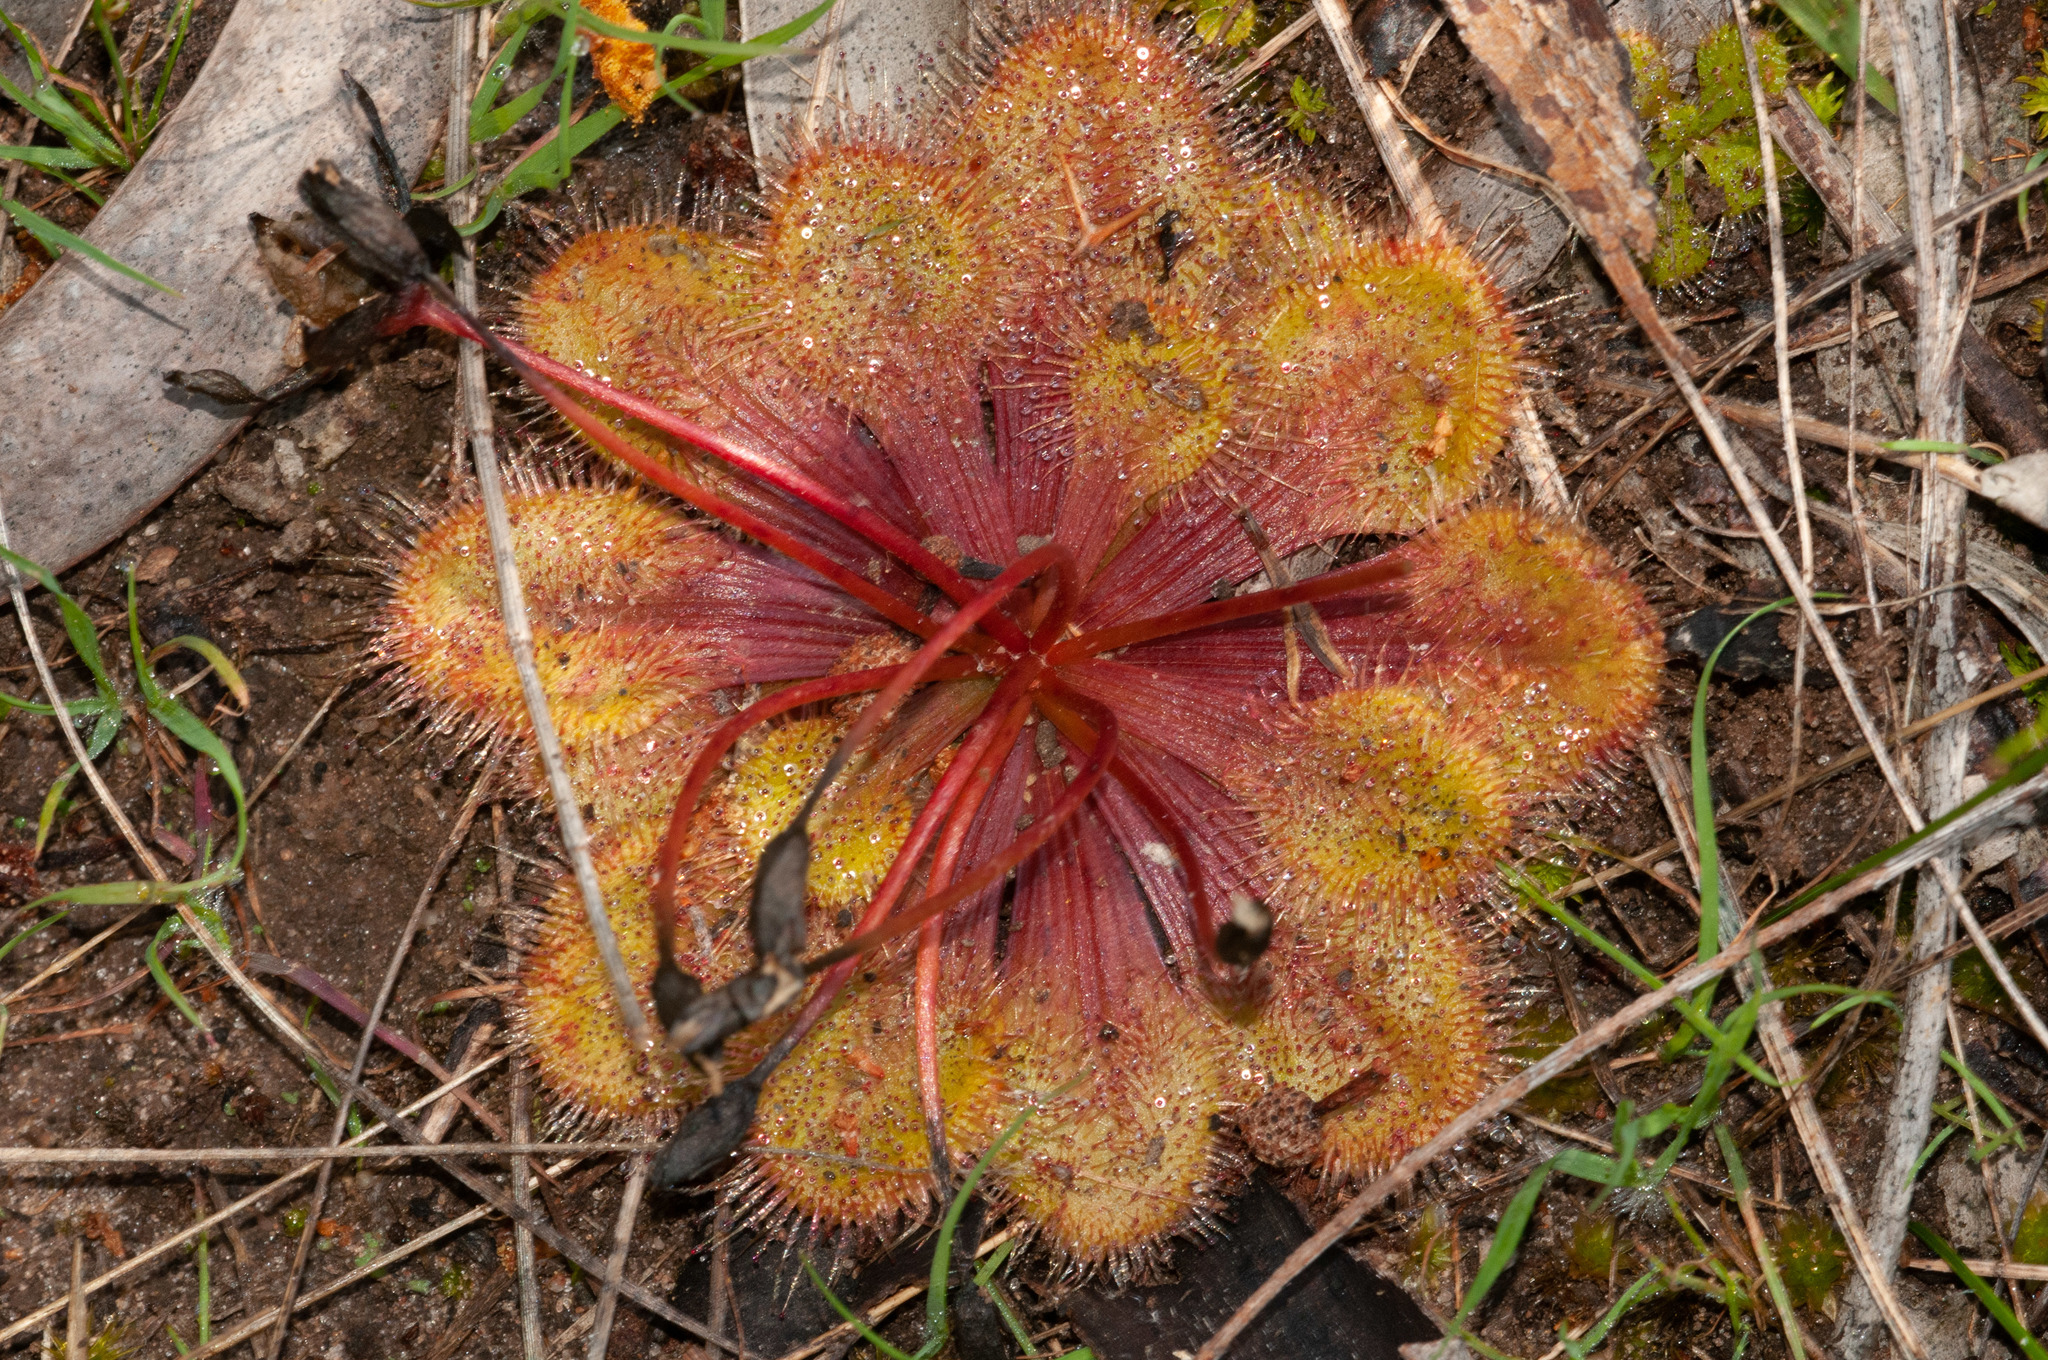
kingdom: Plantae
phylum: Tracheophyta
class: Magnoliopsida
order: Caryophyllales
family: Droseraceae
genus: Drosera
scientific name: Drosera whittakeri
